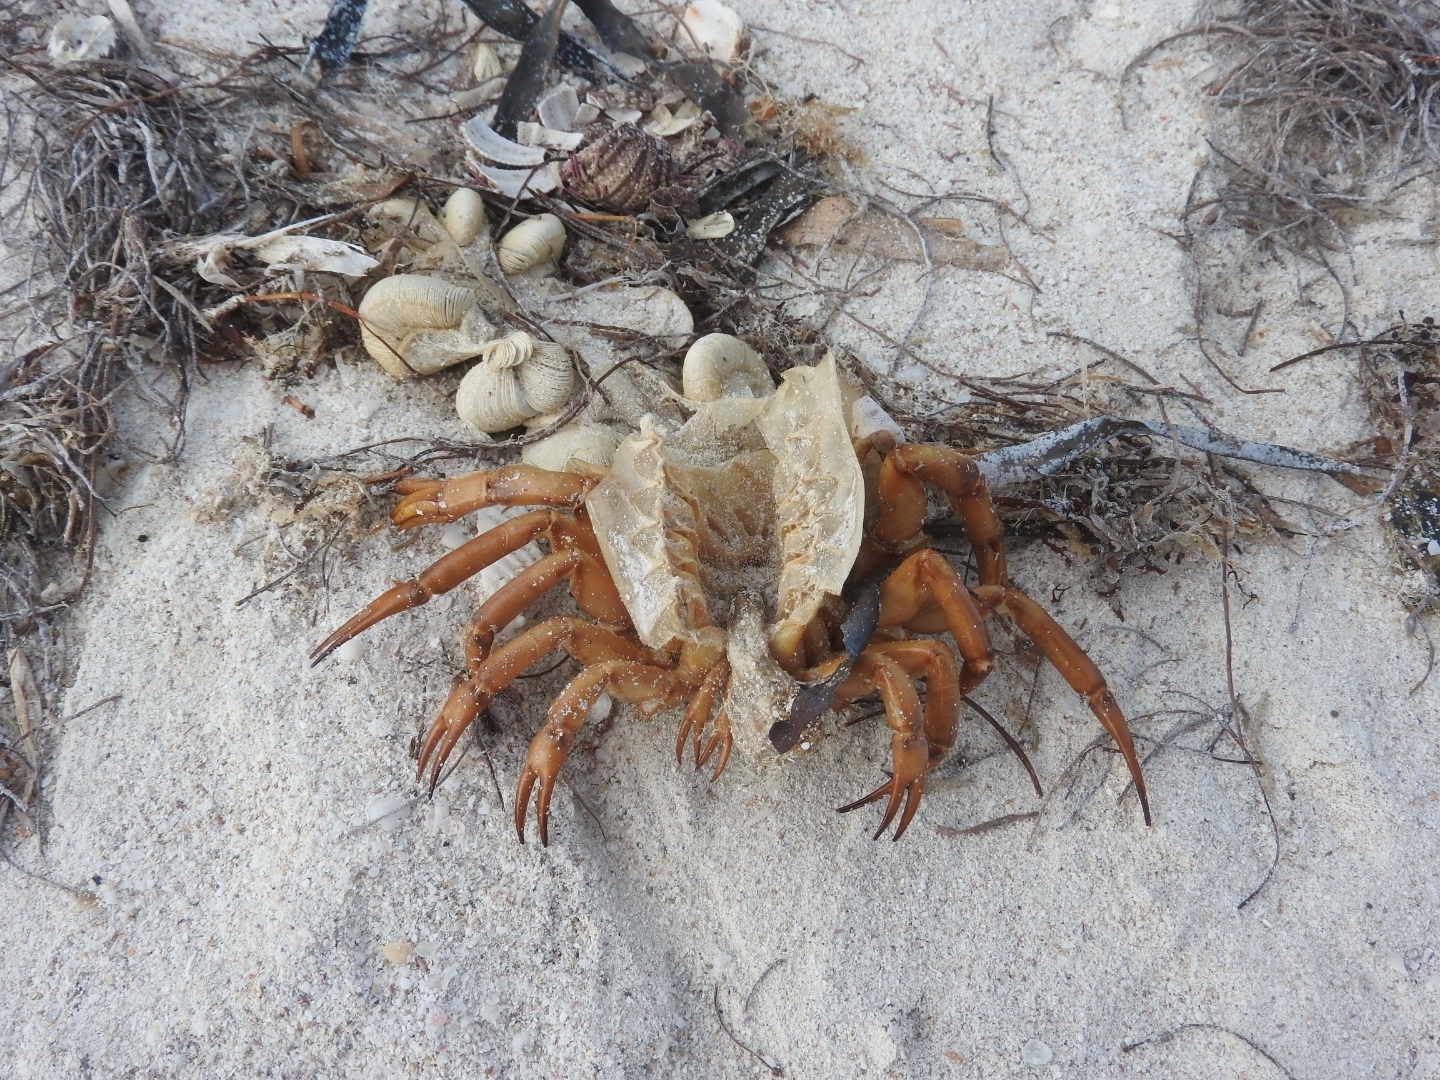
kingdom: Animalia
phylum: Arthropoda
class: Merostomata
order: Xiphosurida
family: Limulidae
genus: Limulus
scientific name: Limulus polyphemus
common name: Horseshoe crab
